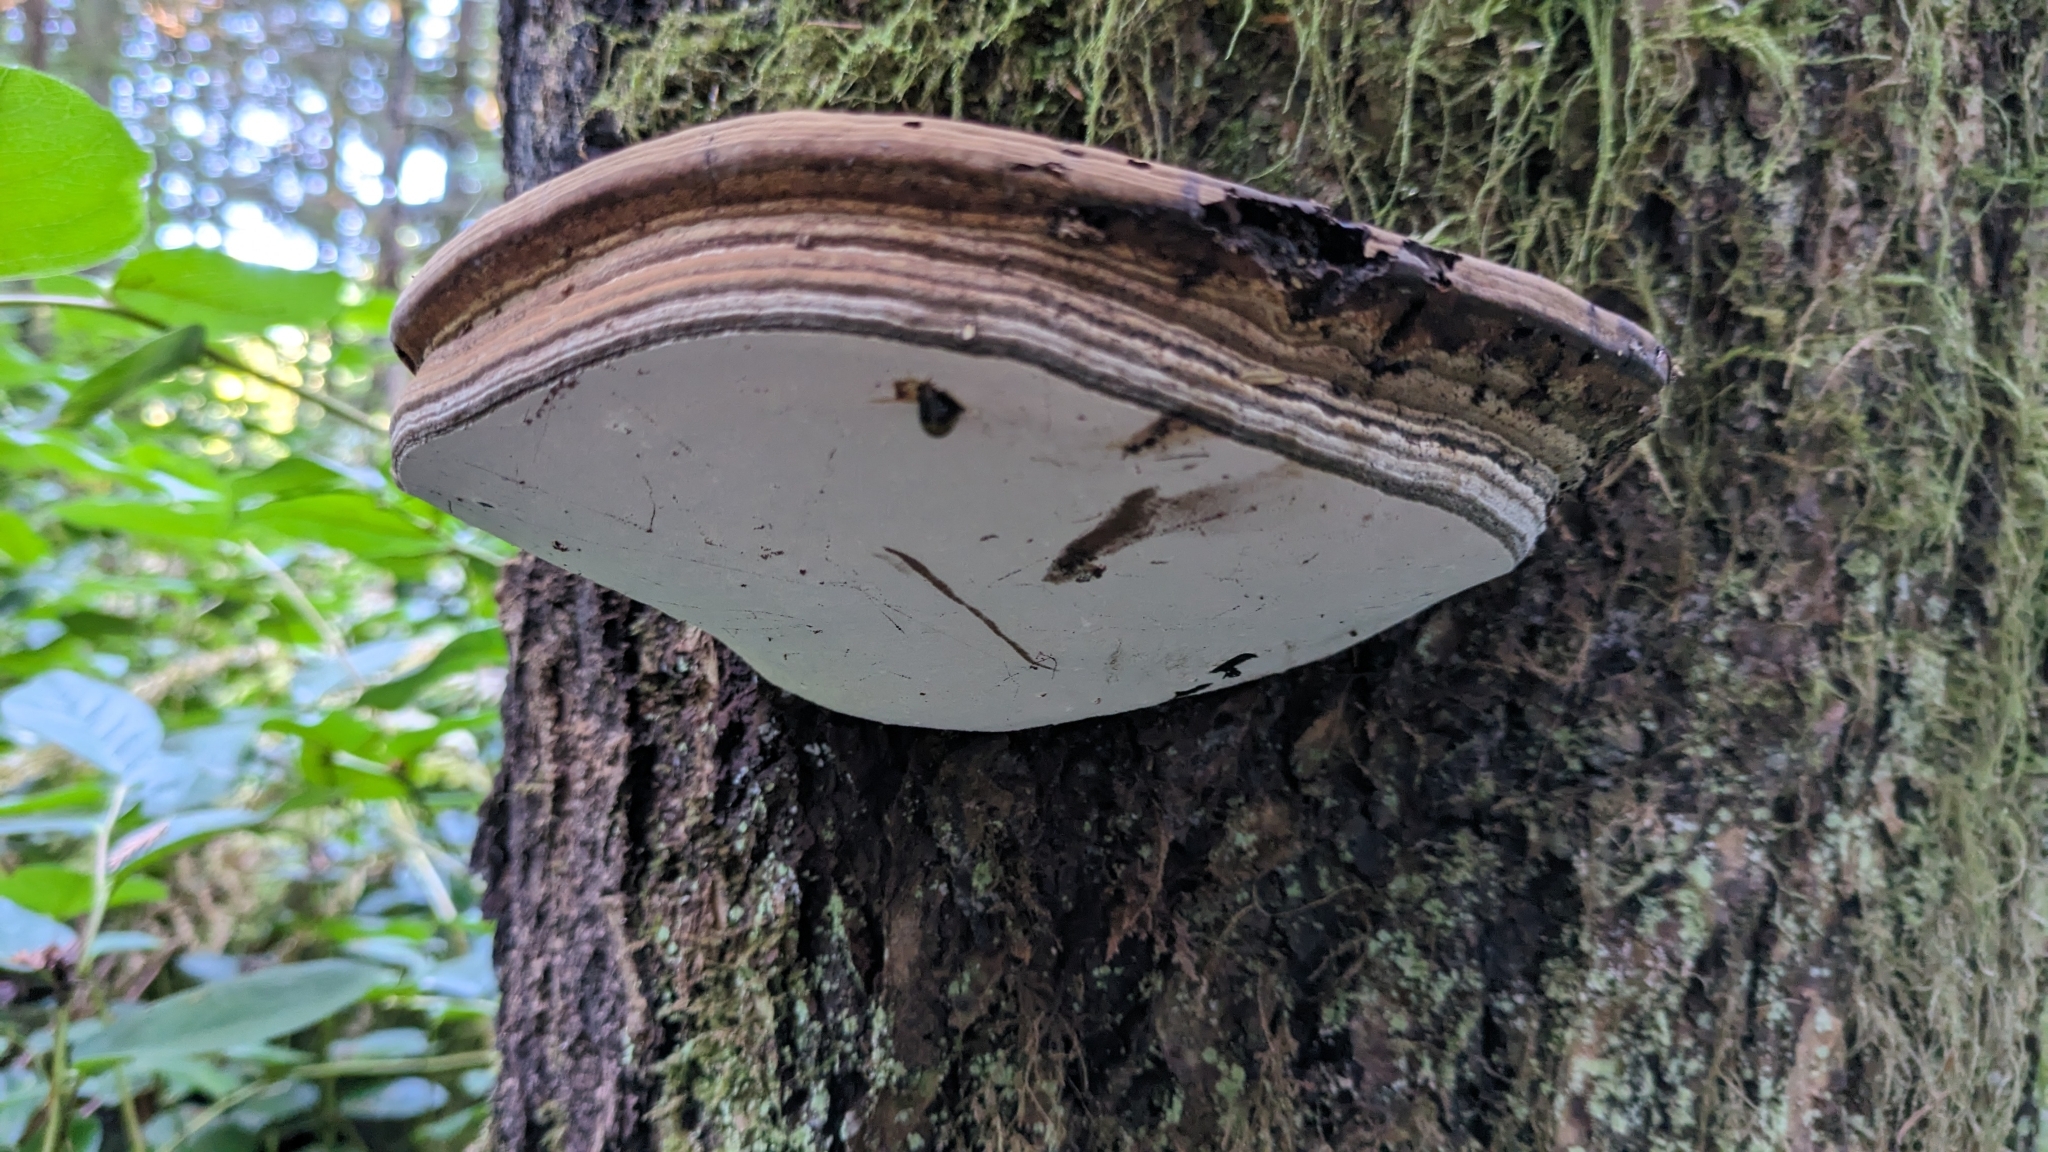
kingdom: Fungi
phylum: Basidiomycota
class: Agaricomycetes
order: Polyporales
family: Polyporaceae
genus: Ganoderma
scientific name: Ganoderma applanatum
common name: Artist's bracket
